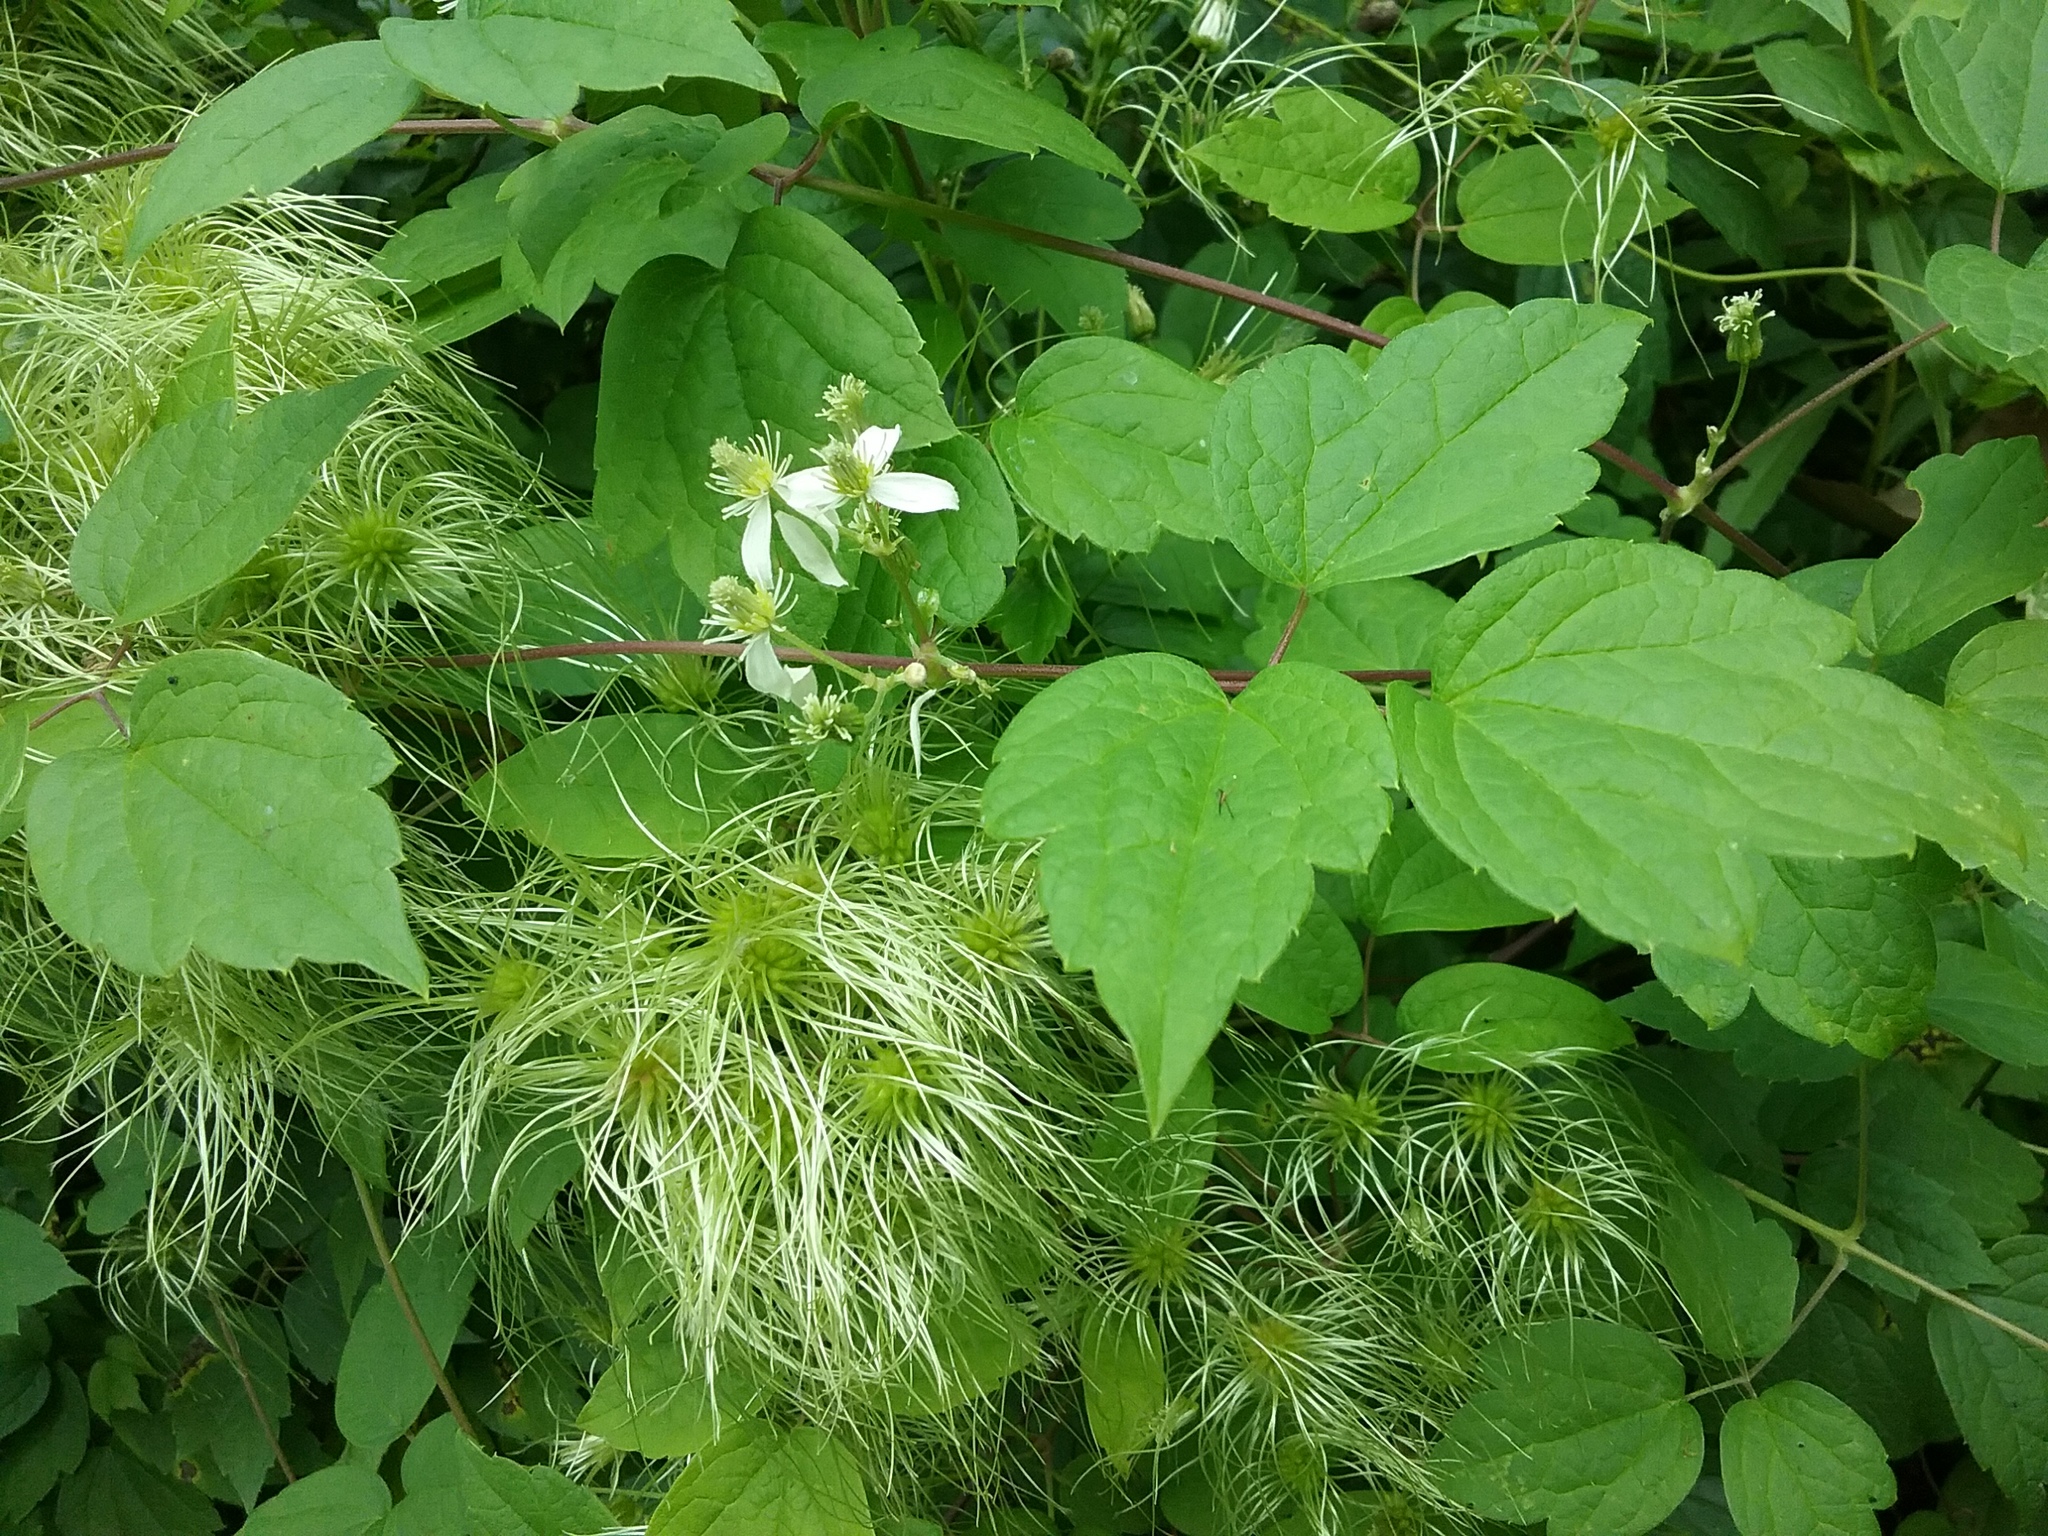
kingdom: Plantae
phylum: Tracheophyta
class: Magnoliopsida
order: Ranunculales
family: Ranunculaceae
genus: Clematis
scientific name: Clematis virginiana
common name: Virgin's-bower
